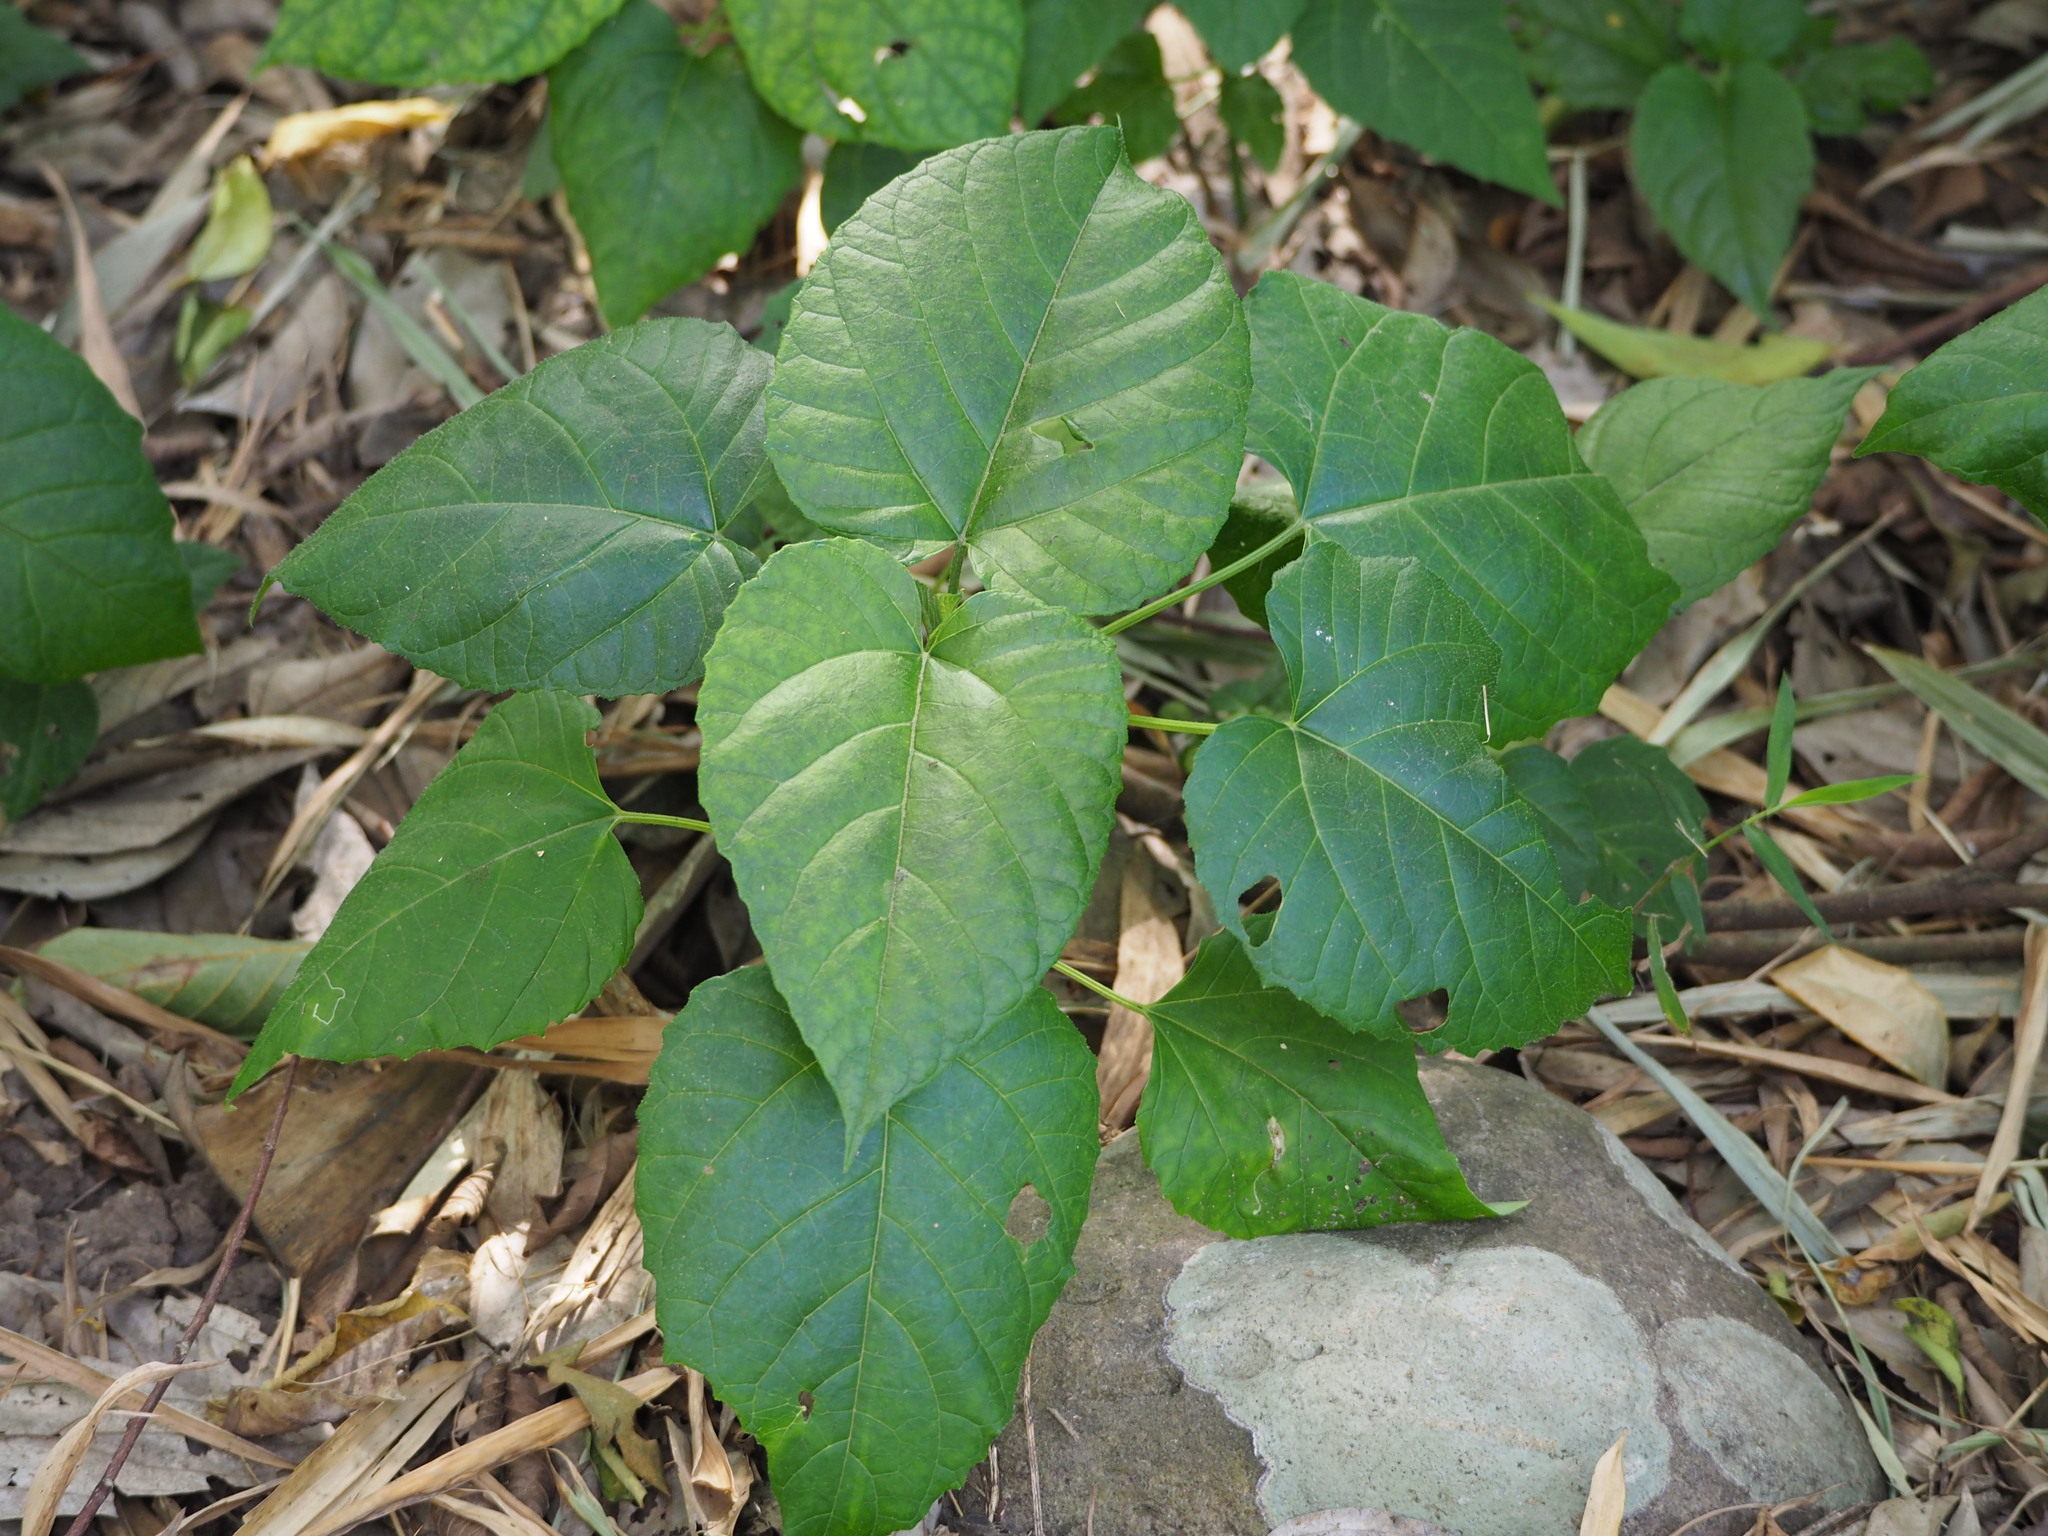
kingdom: Plantae
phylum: Tracheophyta
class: Magnoliopsida
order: Lamiales
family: Lamiaceae
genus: Clerodendrum
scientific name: Clerodendrum japonicum
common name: Japanese glorybower
